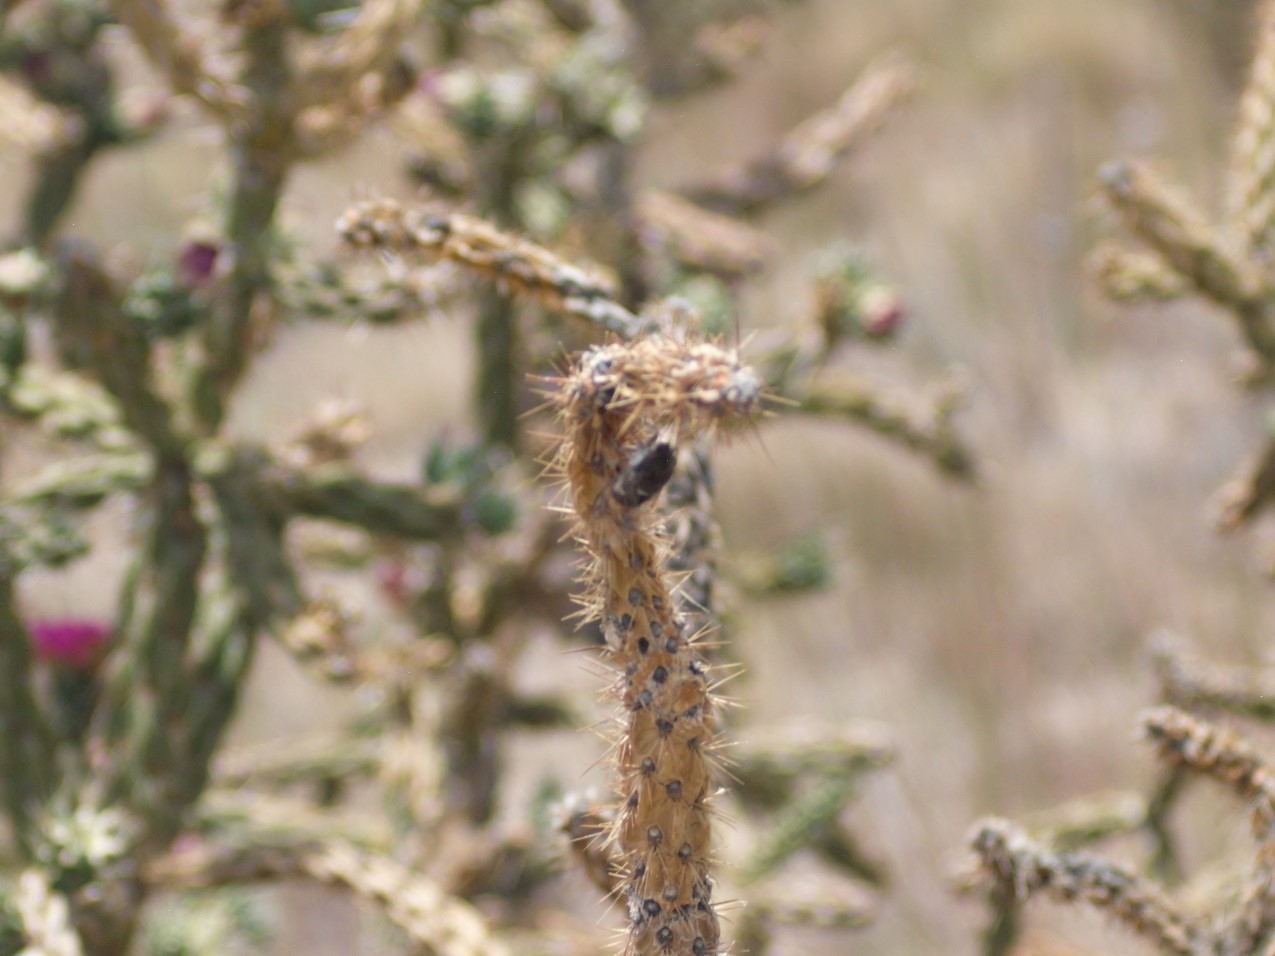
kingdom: Animalia
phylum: Arthropoda
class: Insecta
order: Hemiptera
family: Cicadidae
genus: Cacama
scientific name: Cacama valvata
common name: Cactus dodger
